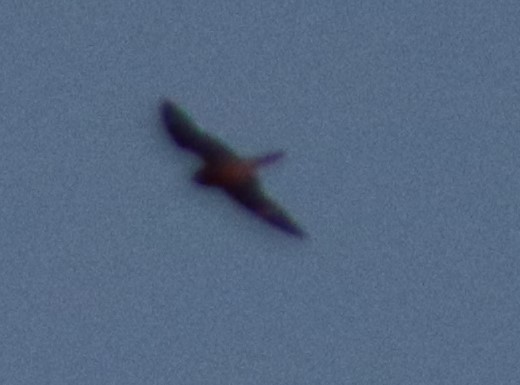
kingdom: Animalia
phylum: Chordata
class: Aves
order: Caprimulgiformes
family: Caprimulgidae
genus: Chordeiles
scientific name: Chordeiles minor
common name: Common nighthawk
